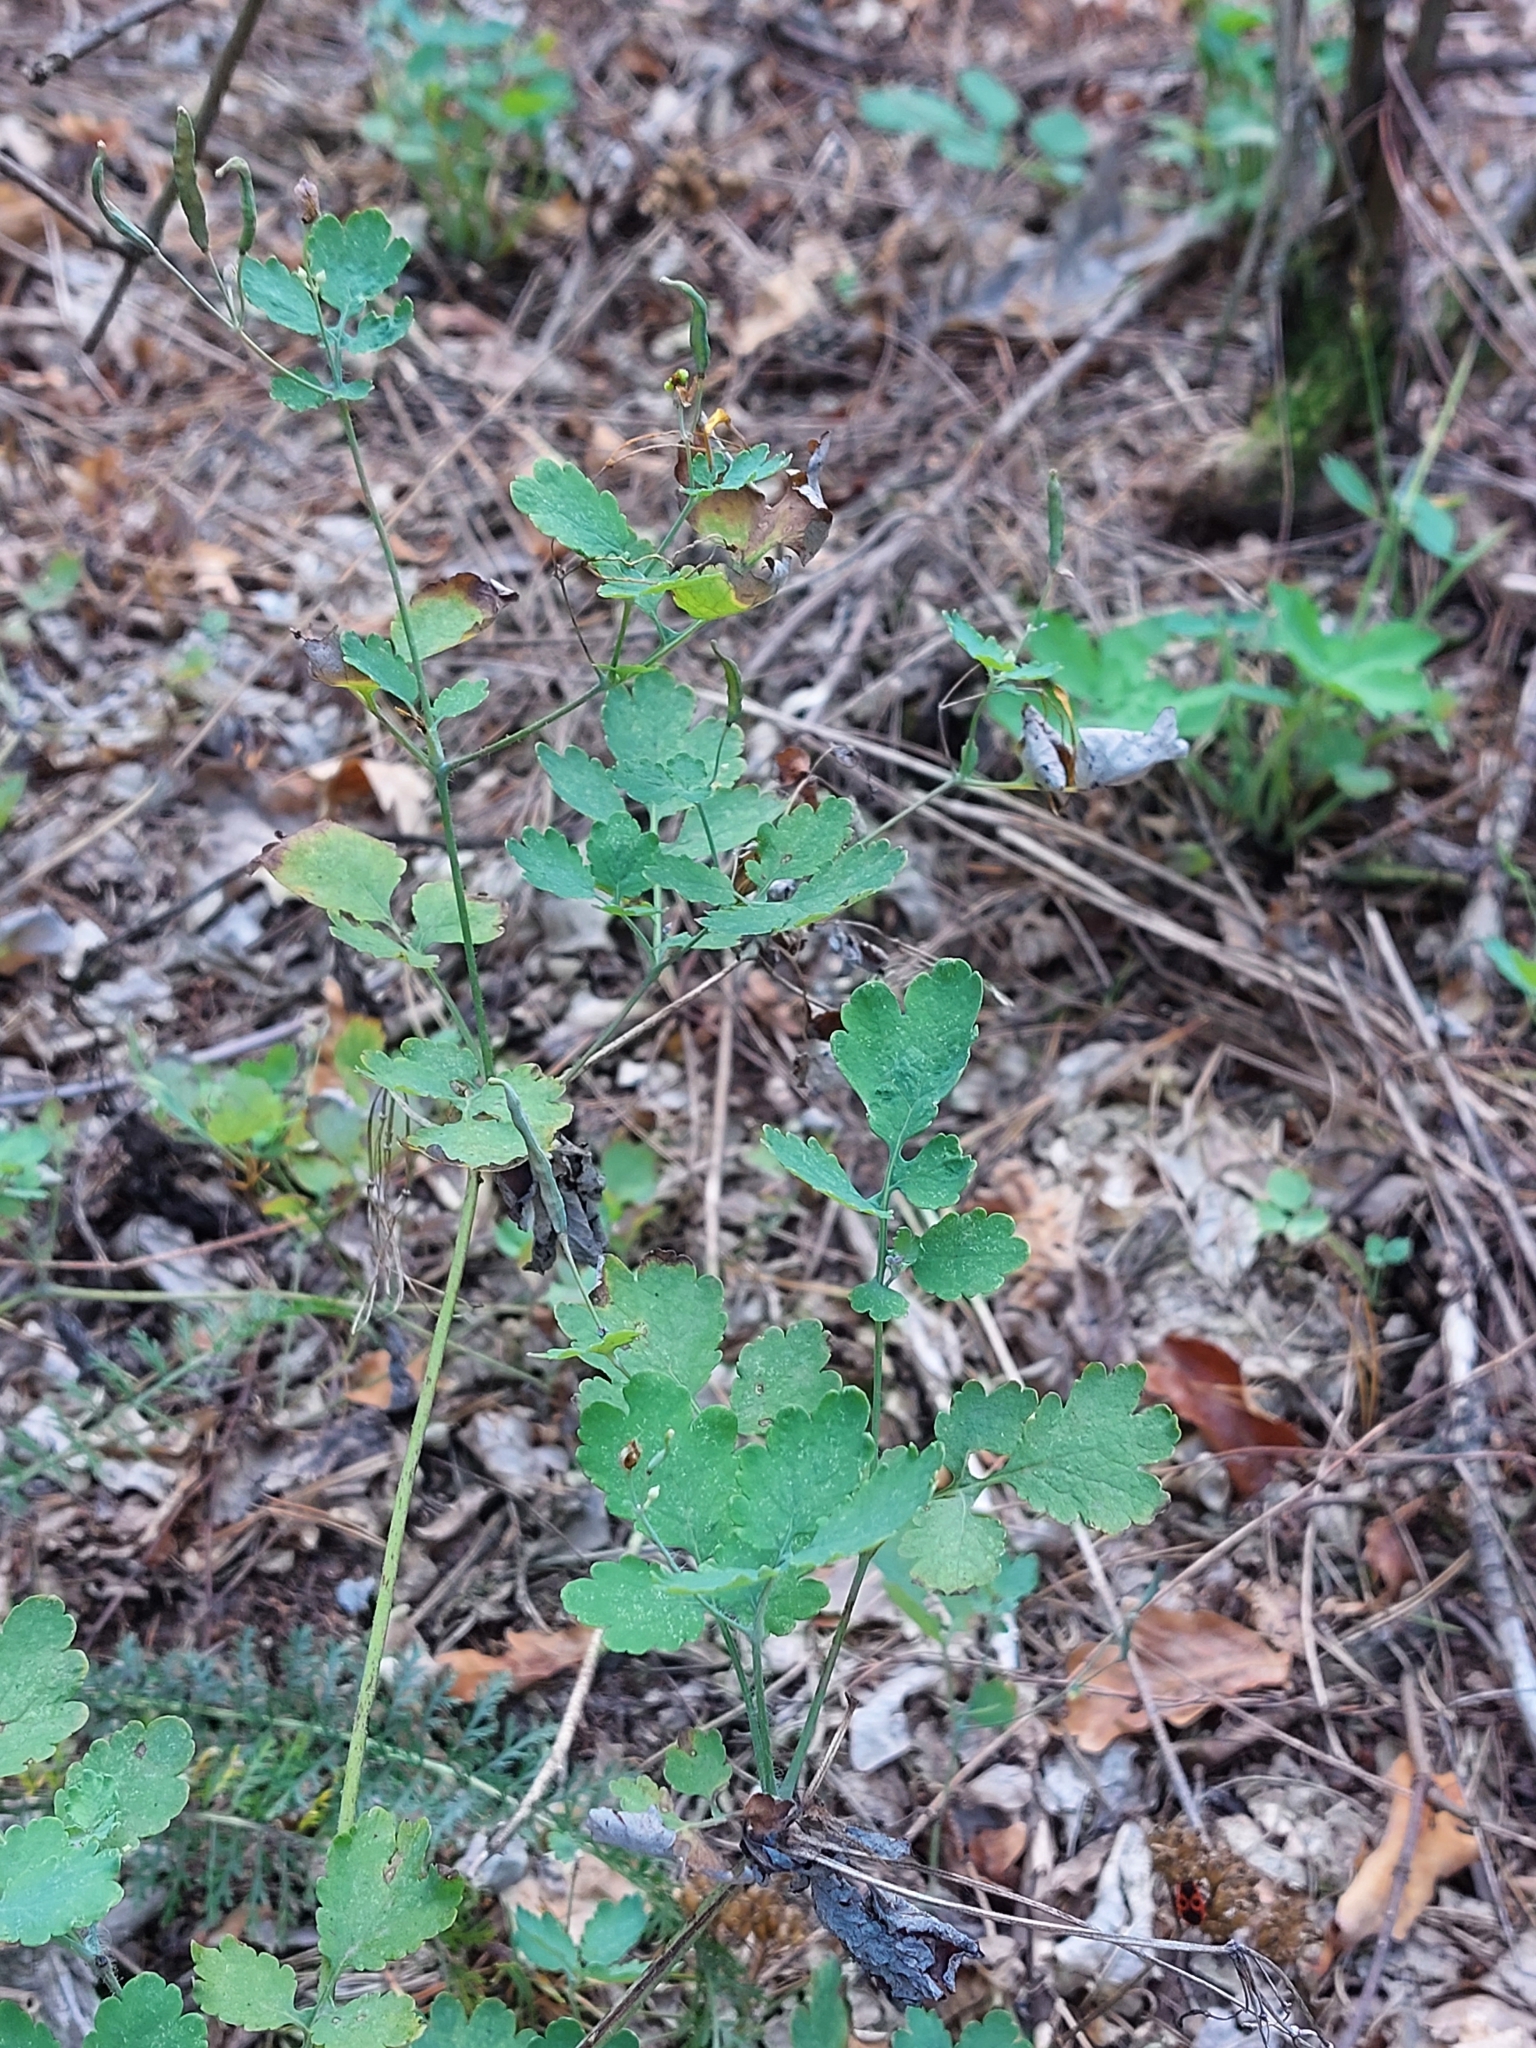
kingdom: Plantae
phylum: Tracheophyta
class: Magnoliopsida
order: Ranunculales
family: Papaveraceae
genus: Chelidonium
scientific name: Chelidonium majus
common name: Greater celandine
